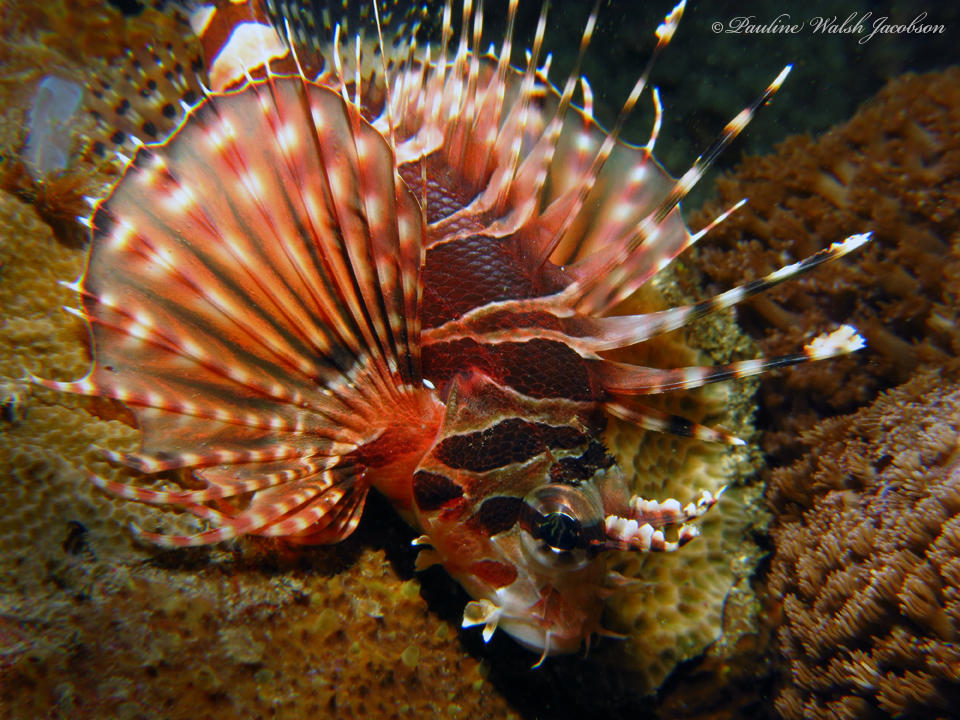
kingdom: Animalia
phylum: Chordata
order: Scorpaeniformes
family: Scorpaenidae
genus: Dendrochirus
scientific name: Dendrochirus zebra
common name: Zebra lionfish
